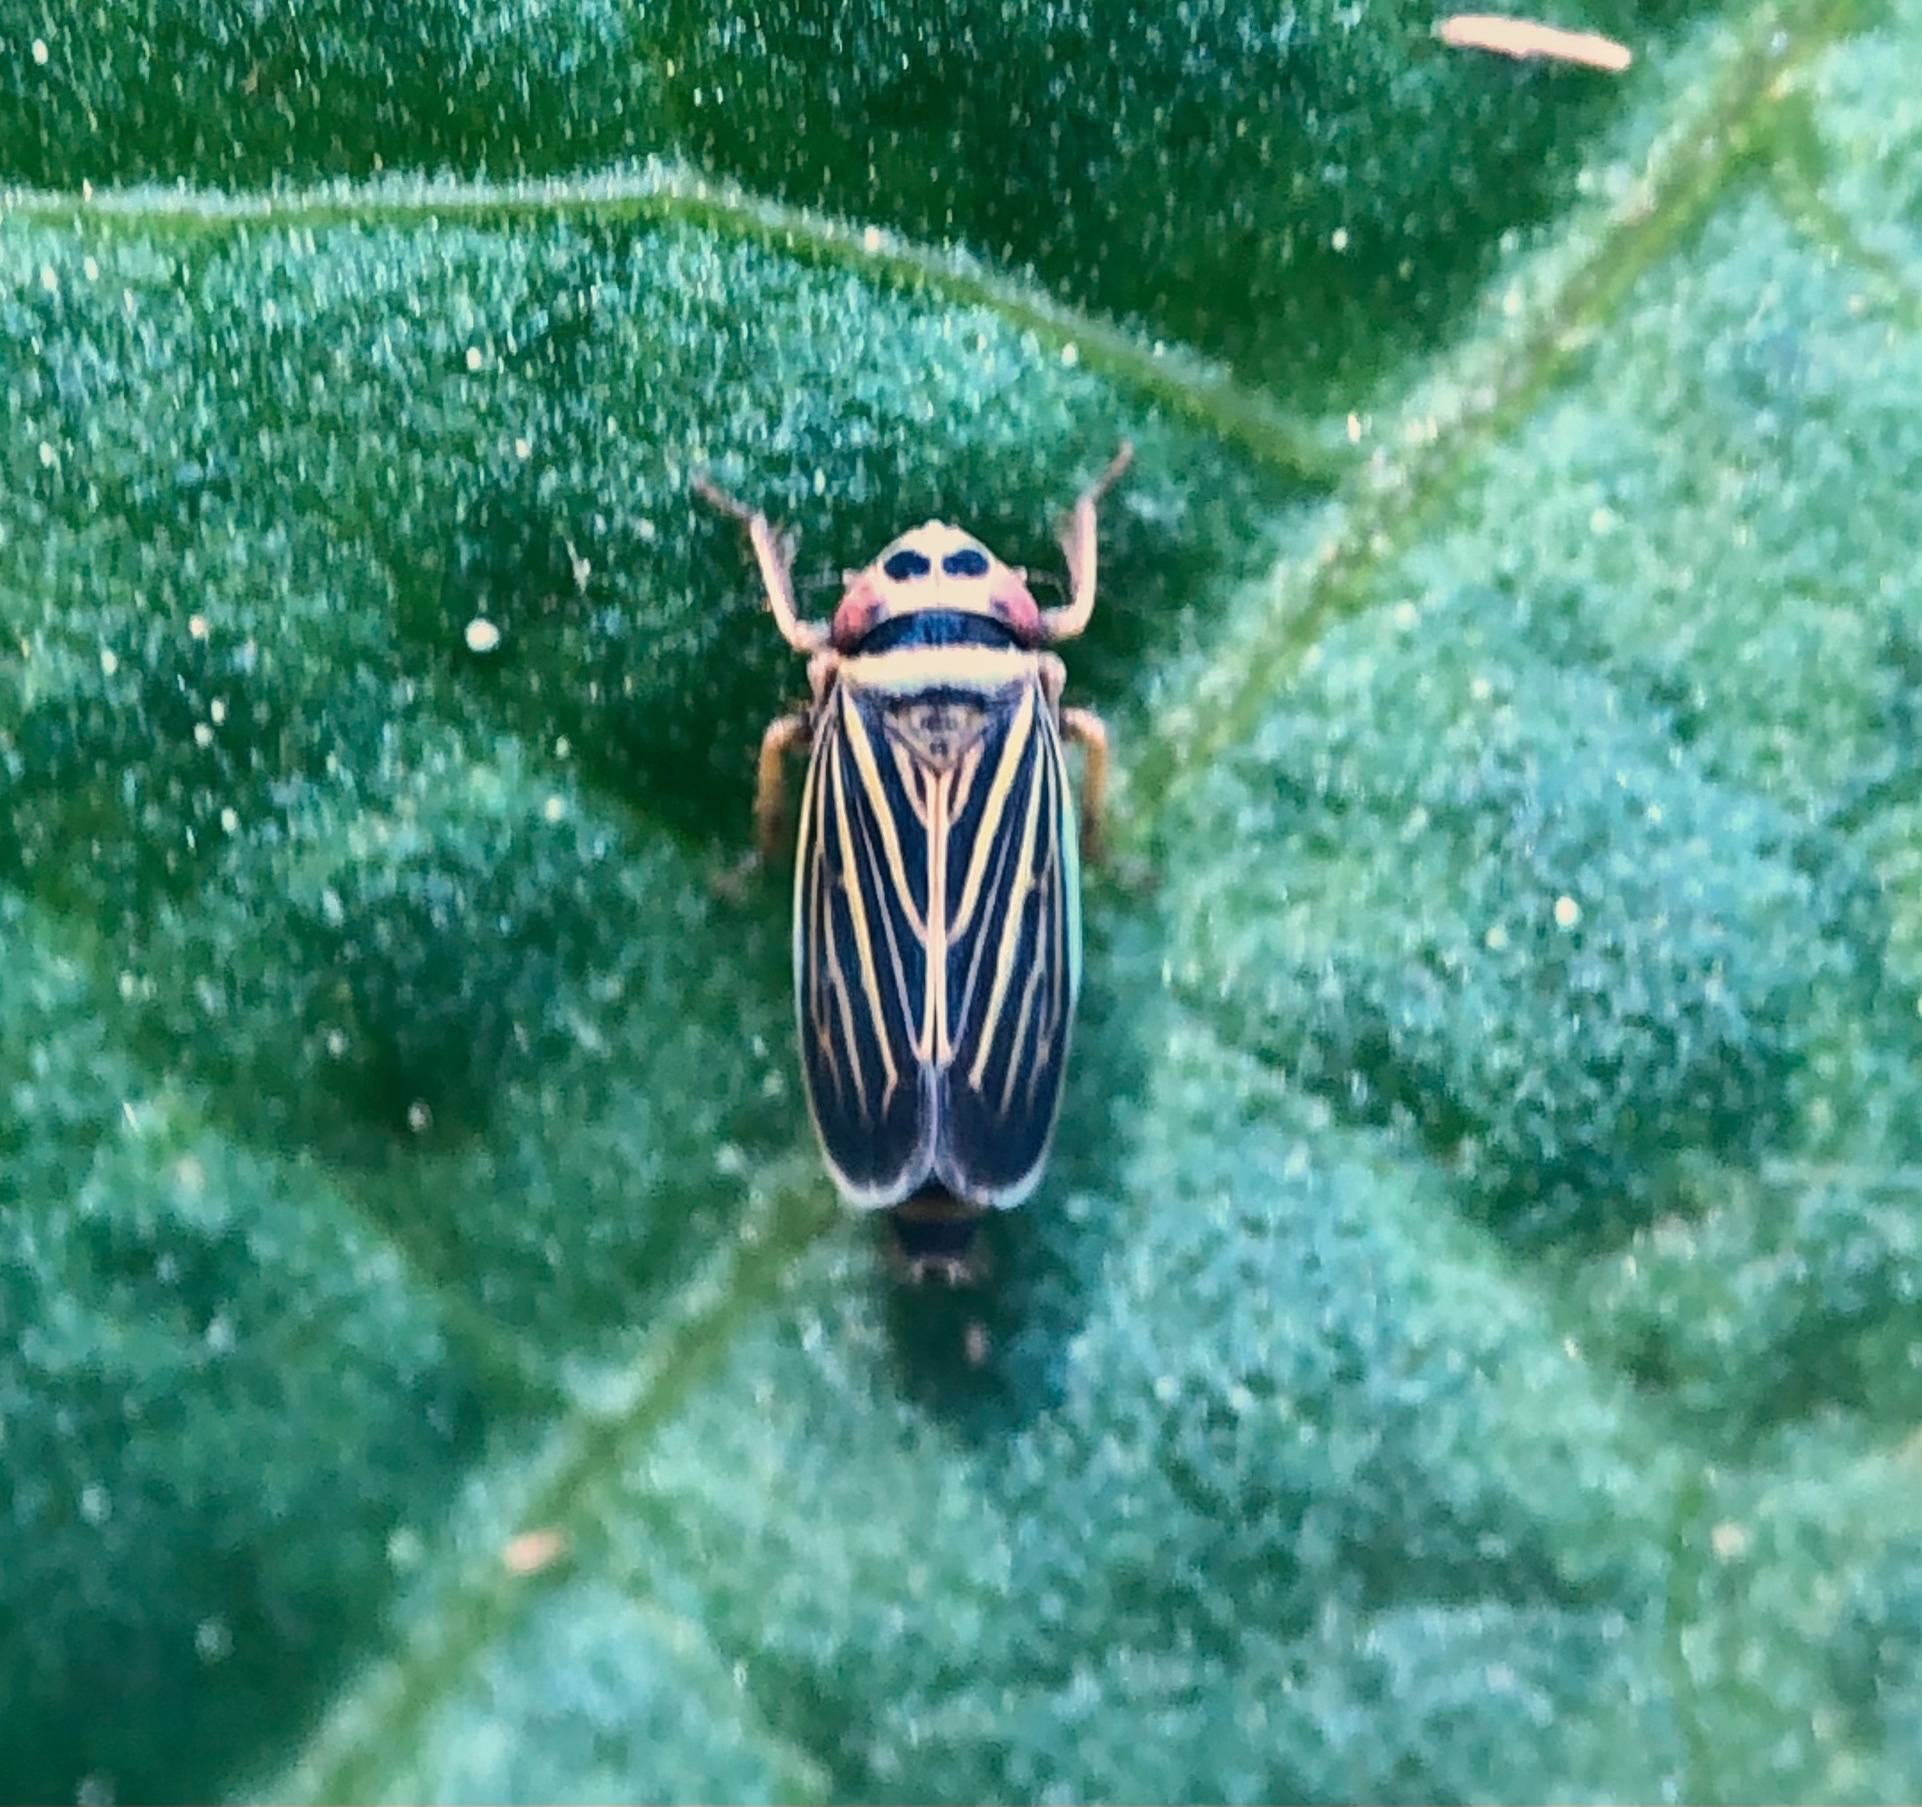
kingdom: Animalia
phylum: Arthropoda
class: Insecta
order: Hemiptera
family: Cicadellidae
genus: Amblysellus
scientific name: Amblysellus curtisii
